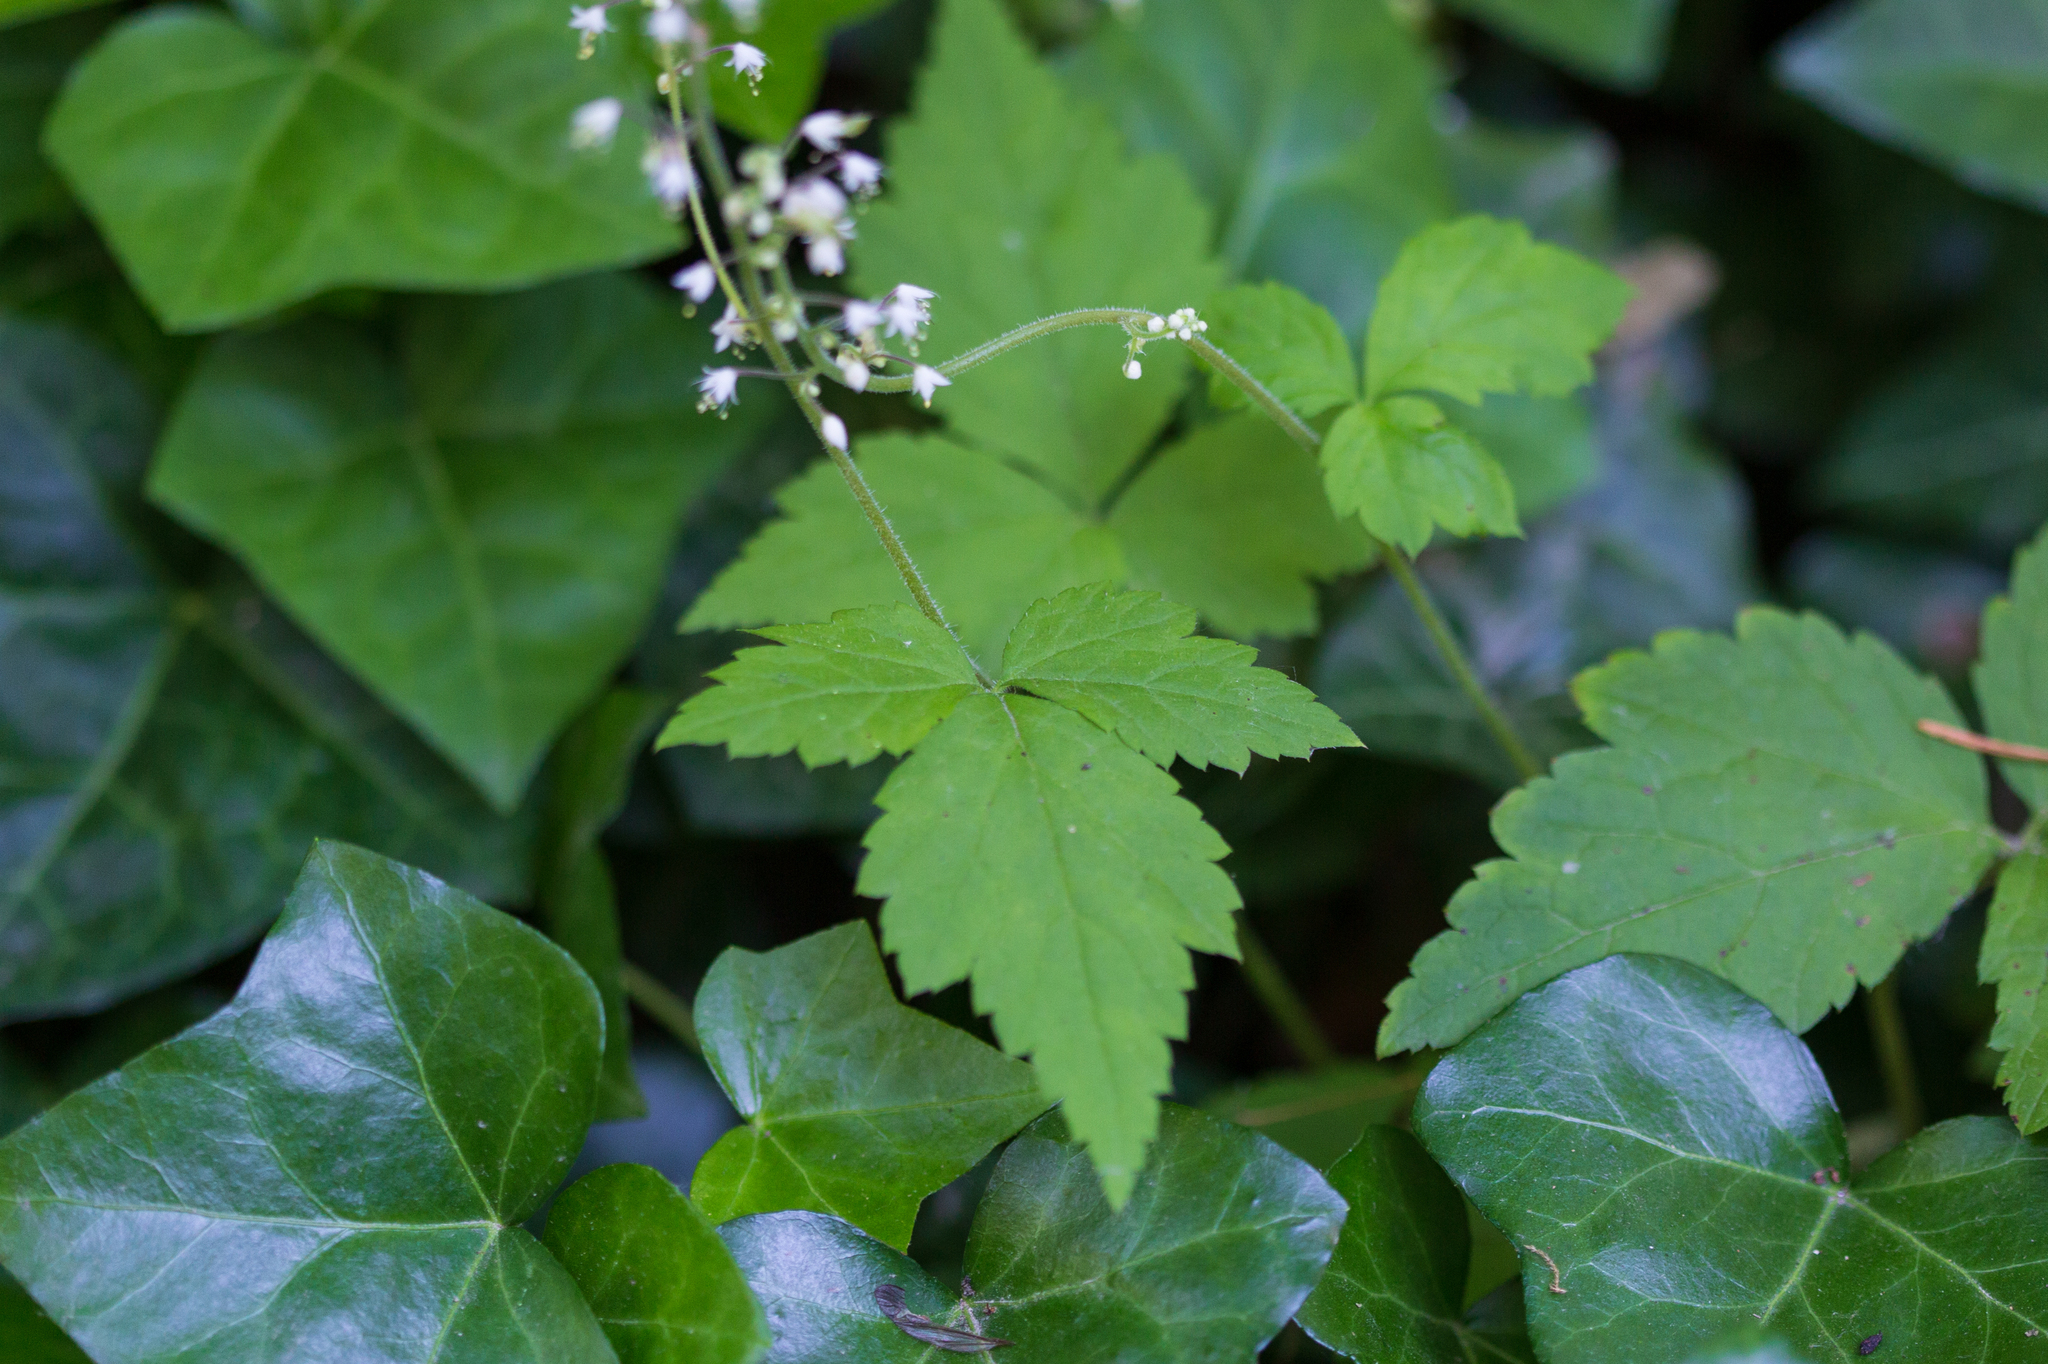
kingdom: Plantae
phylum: Tracheophyta
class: Magnoliopsida
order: Saxifragales
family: Saxifragaceae
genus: Tiarella
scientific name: Tiarella trifoliata
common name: Sugar-scoop
